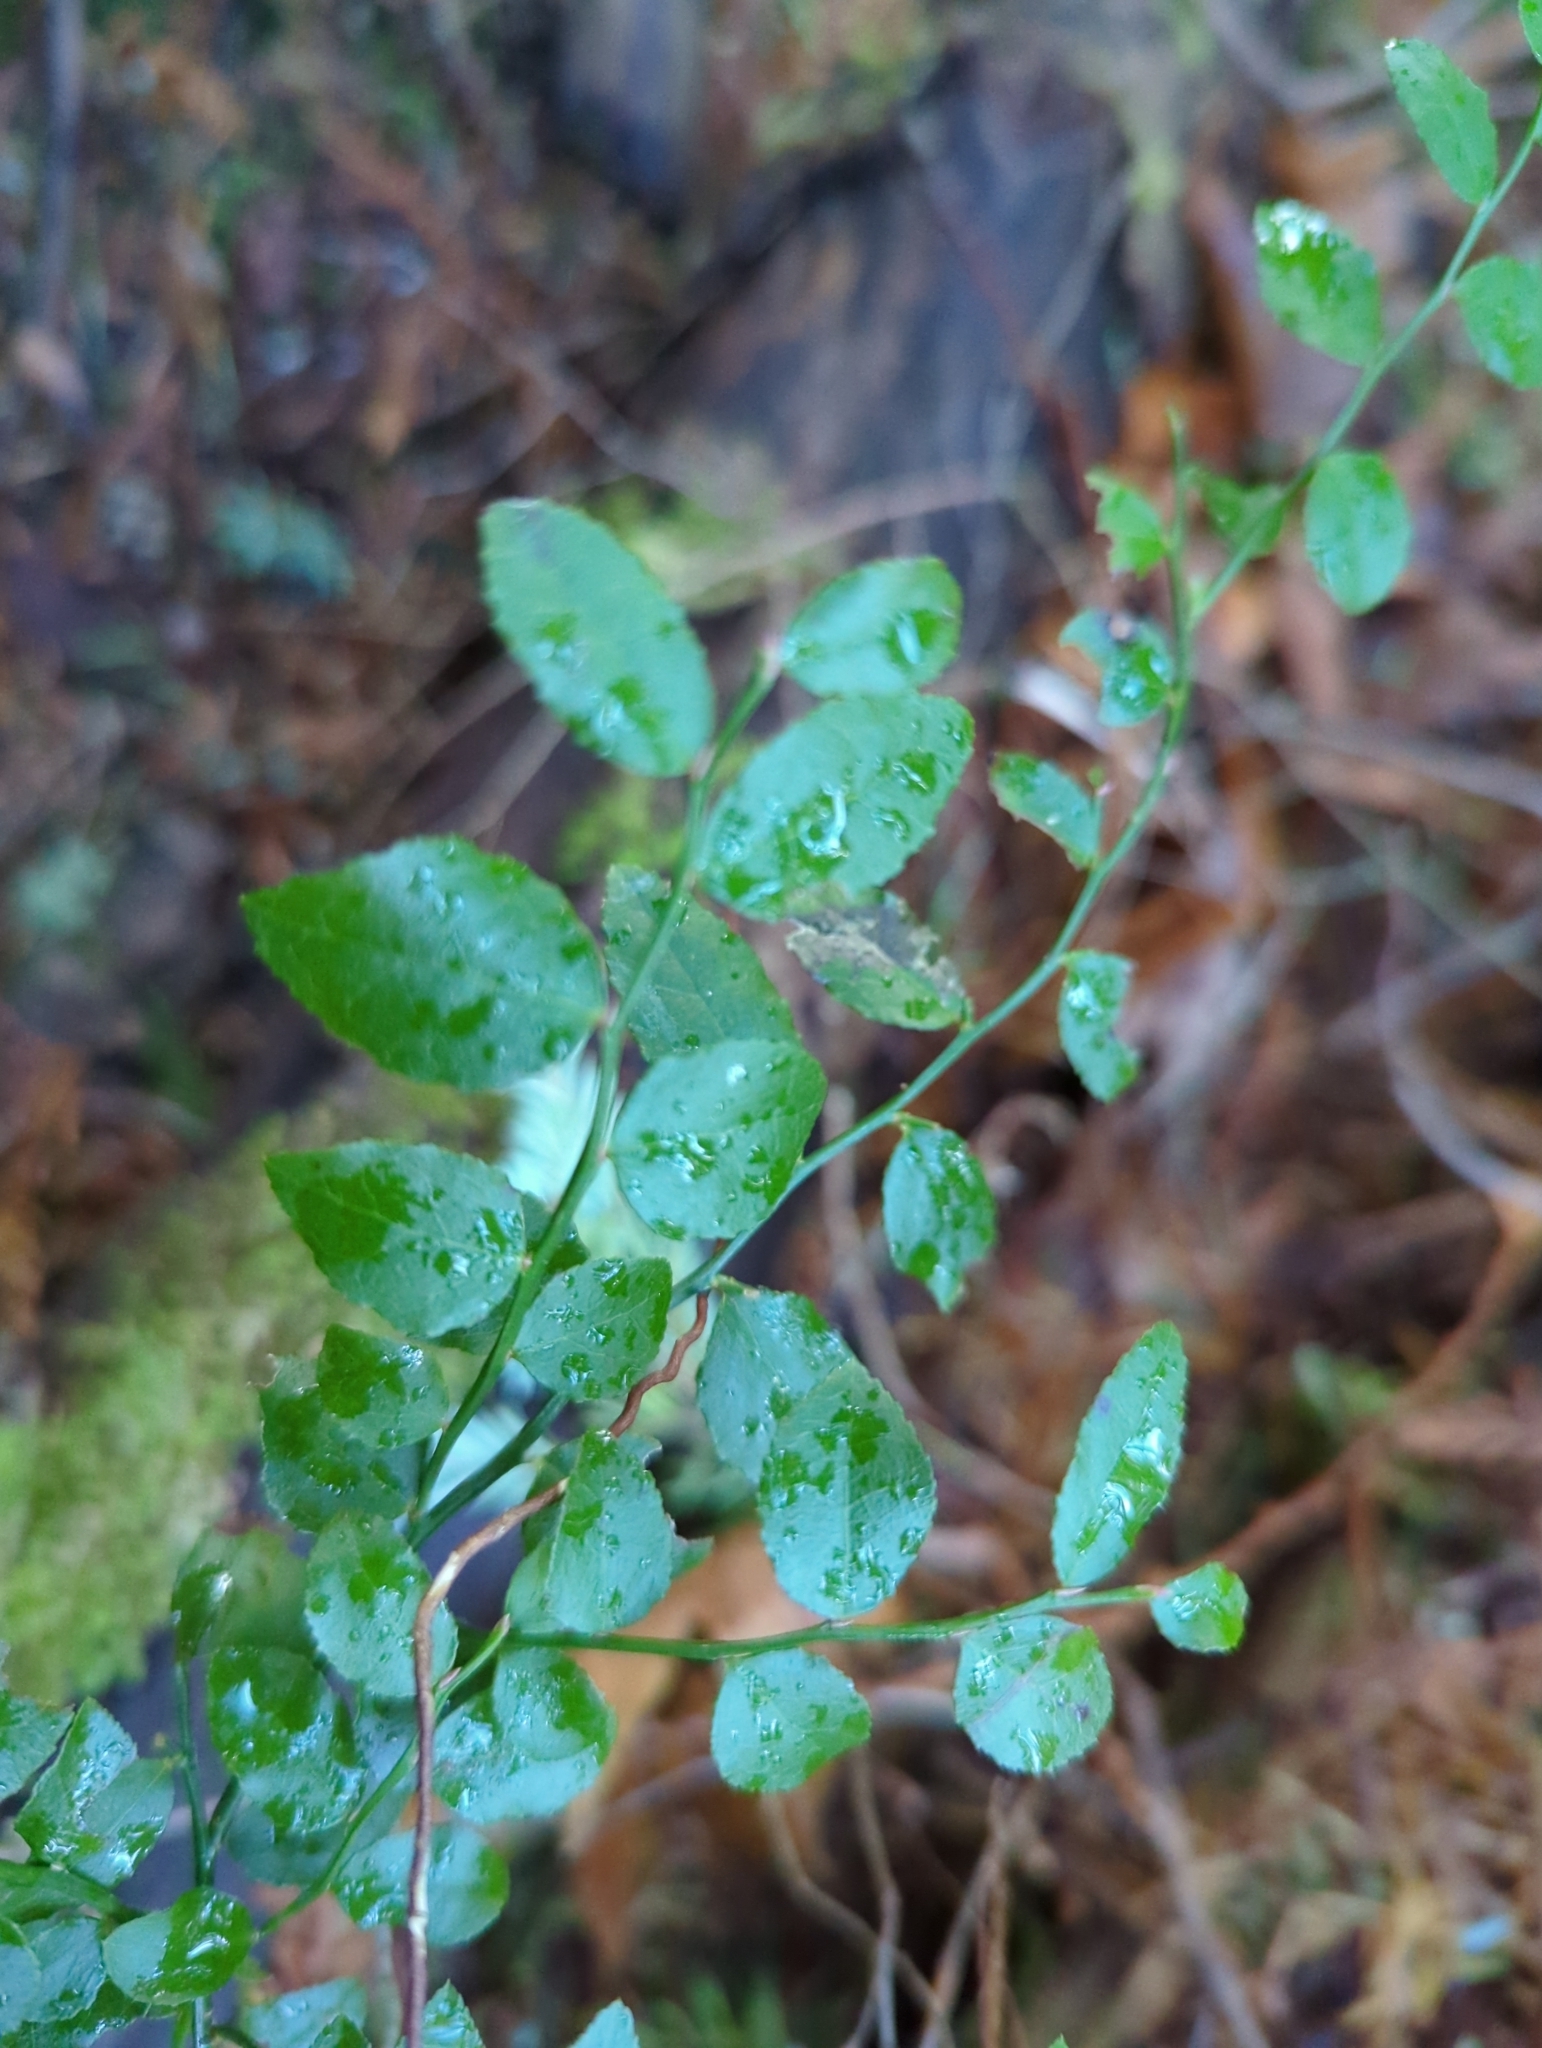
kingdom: Plantae
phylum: Tracheophyta
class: Magnoliopsida
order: Ericales
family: Ericaceae
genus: Vaccinium
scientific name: Vaccinium parvifolium
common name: Red-huckleberry
